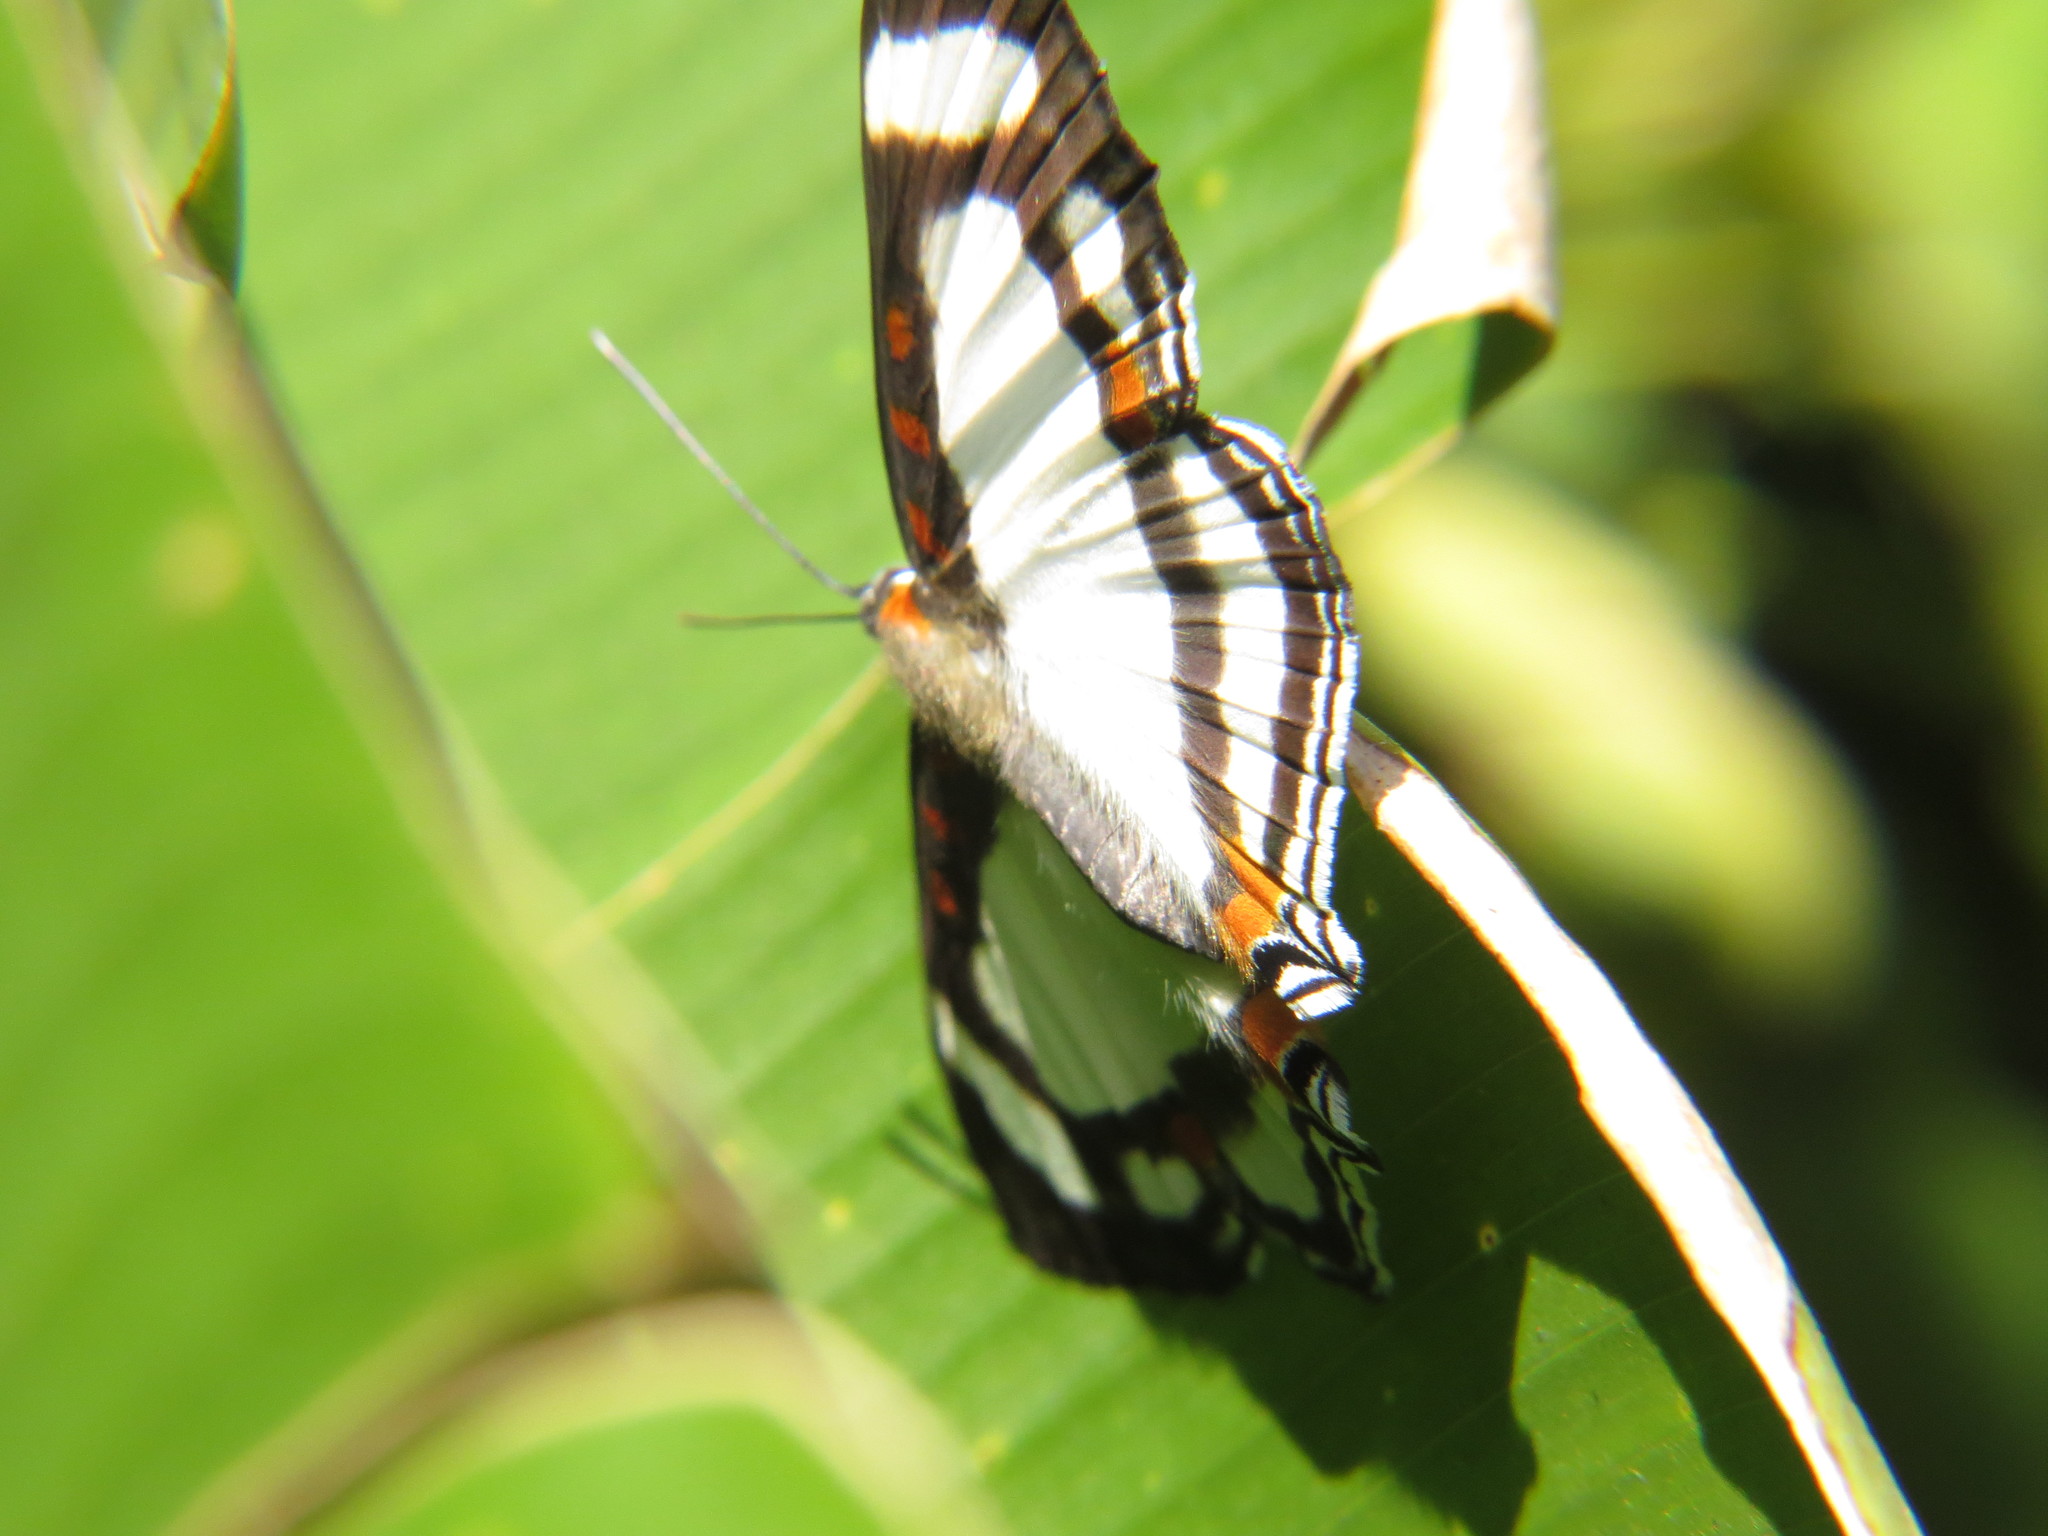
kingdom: Animalia
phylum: Arthropoda
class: Insecta
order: Lepidoptera
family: Riodinidae
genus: Thisbe
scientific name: Thisbe lycorias
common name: Banner metalmark
